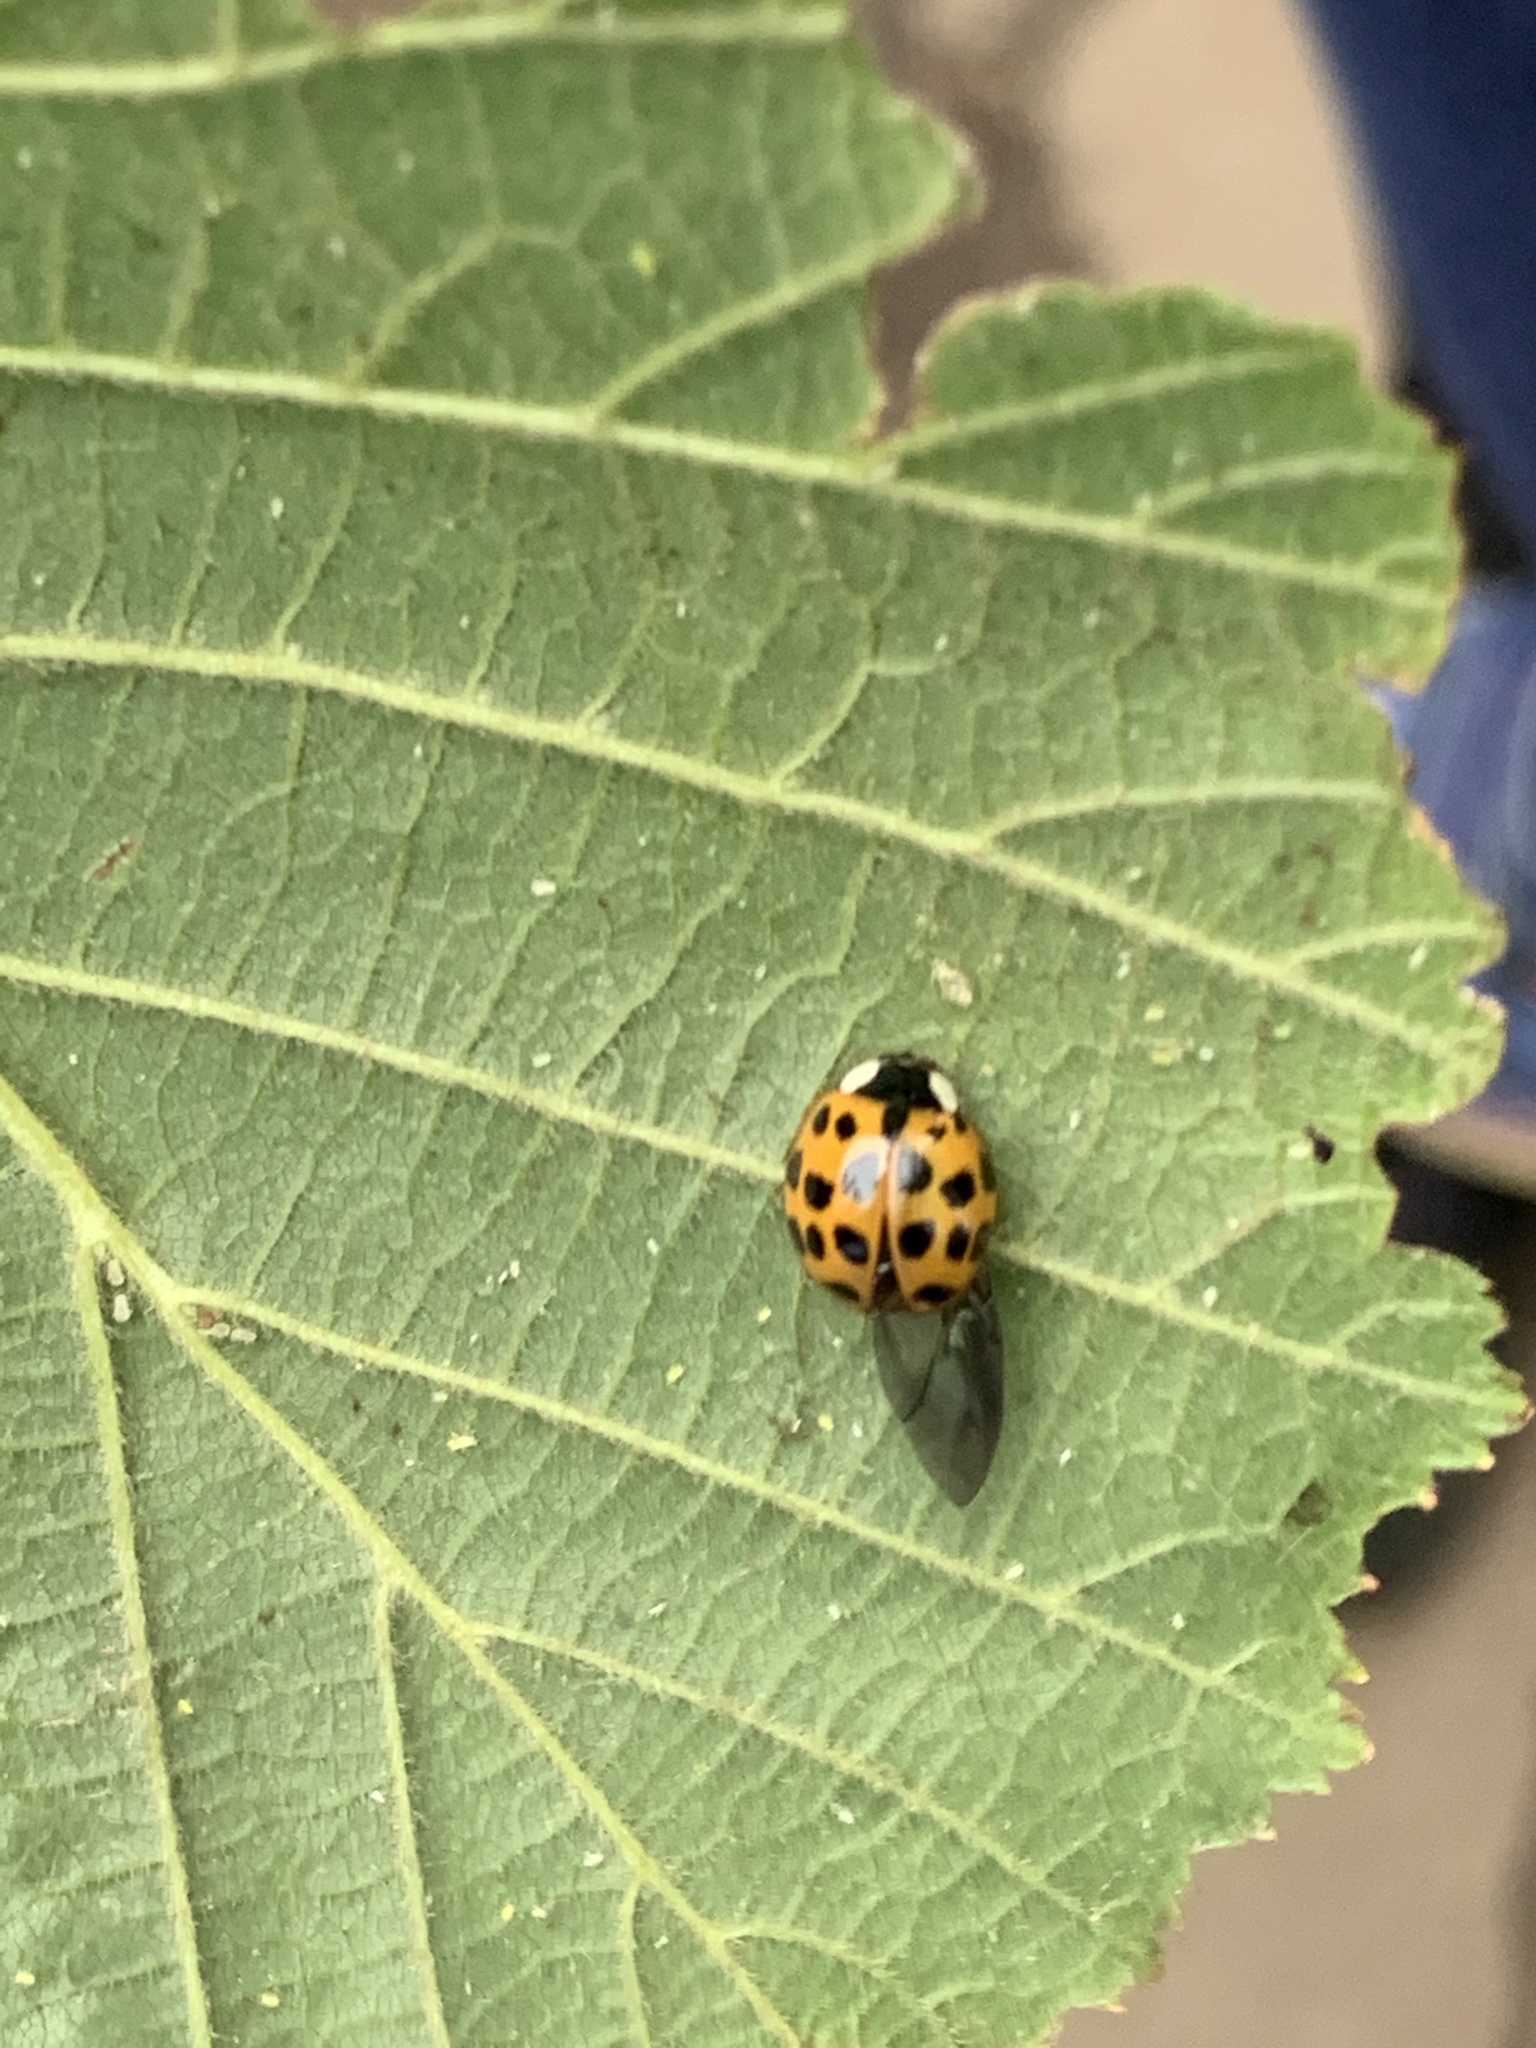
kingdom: Animalia
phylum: Arthropoda
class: Insecta
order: Coleoptera
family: Coccinellidae
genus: Harmonia
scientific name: Harmonia axyridis
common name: Harlequin ladybird
